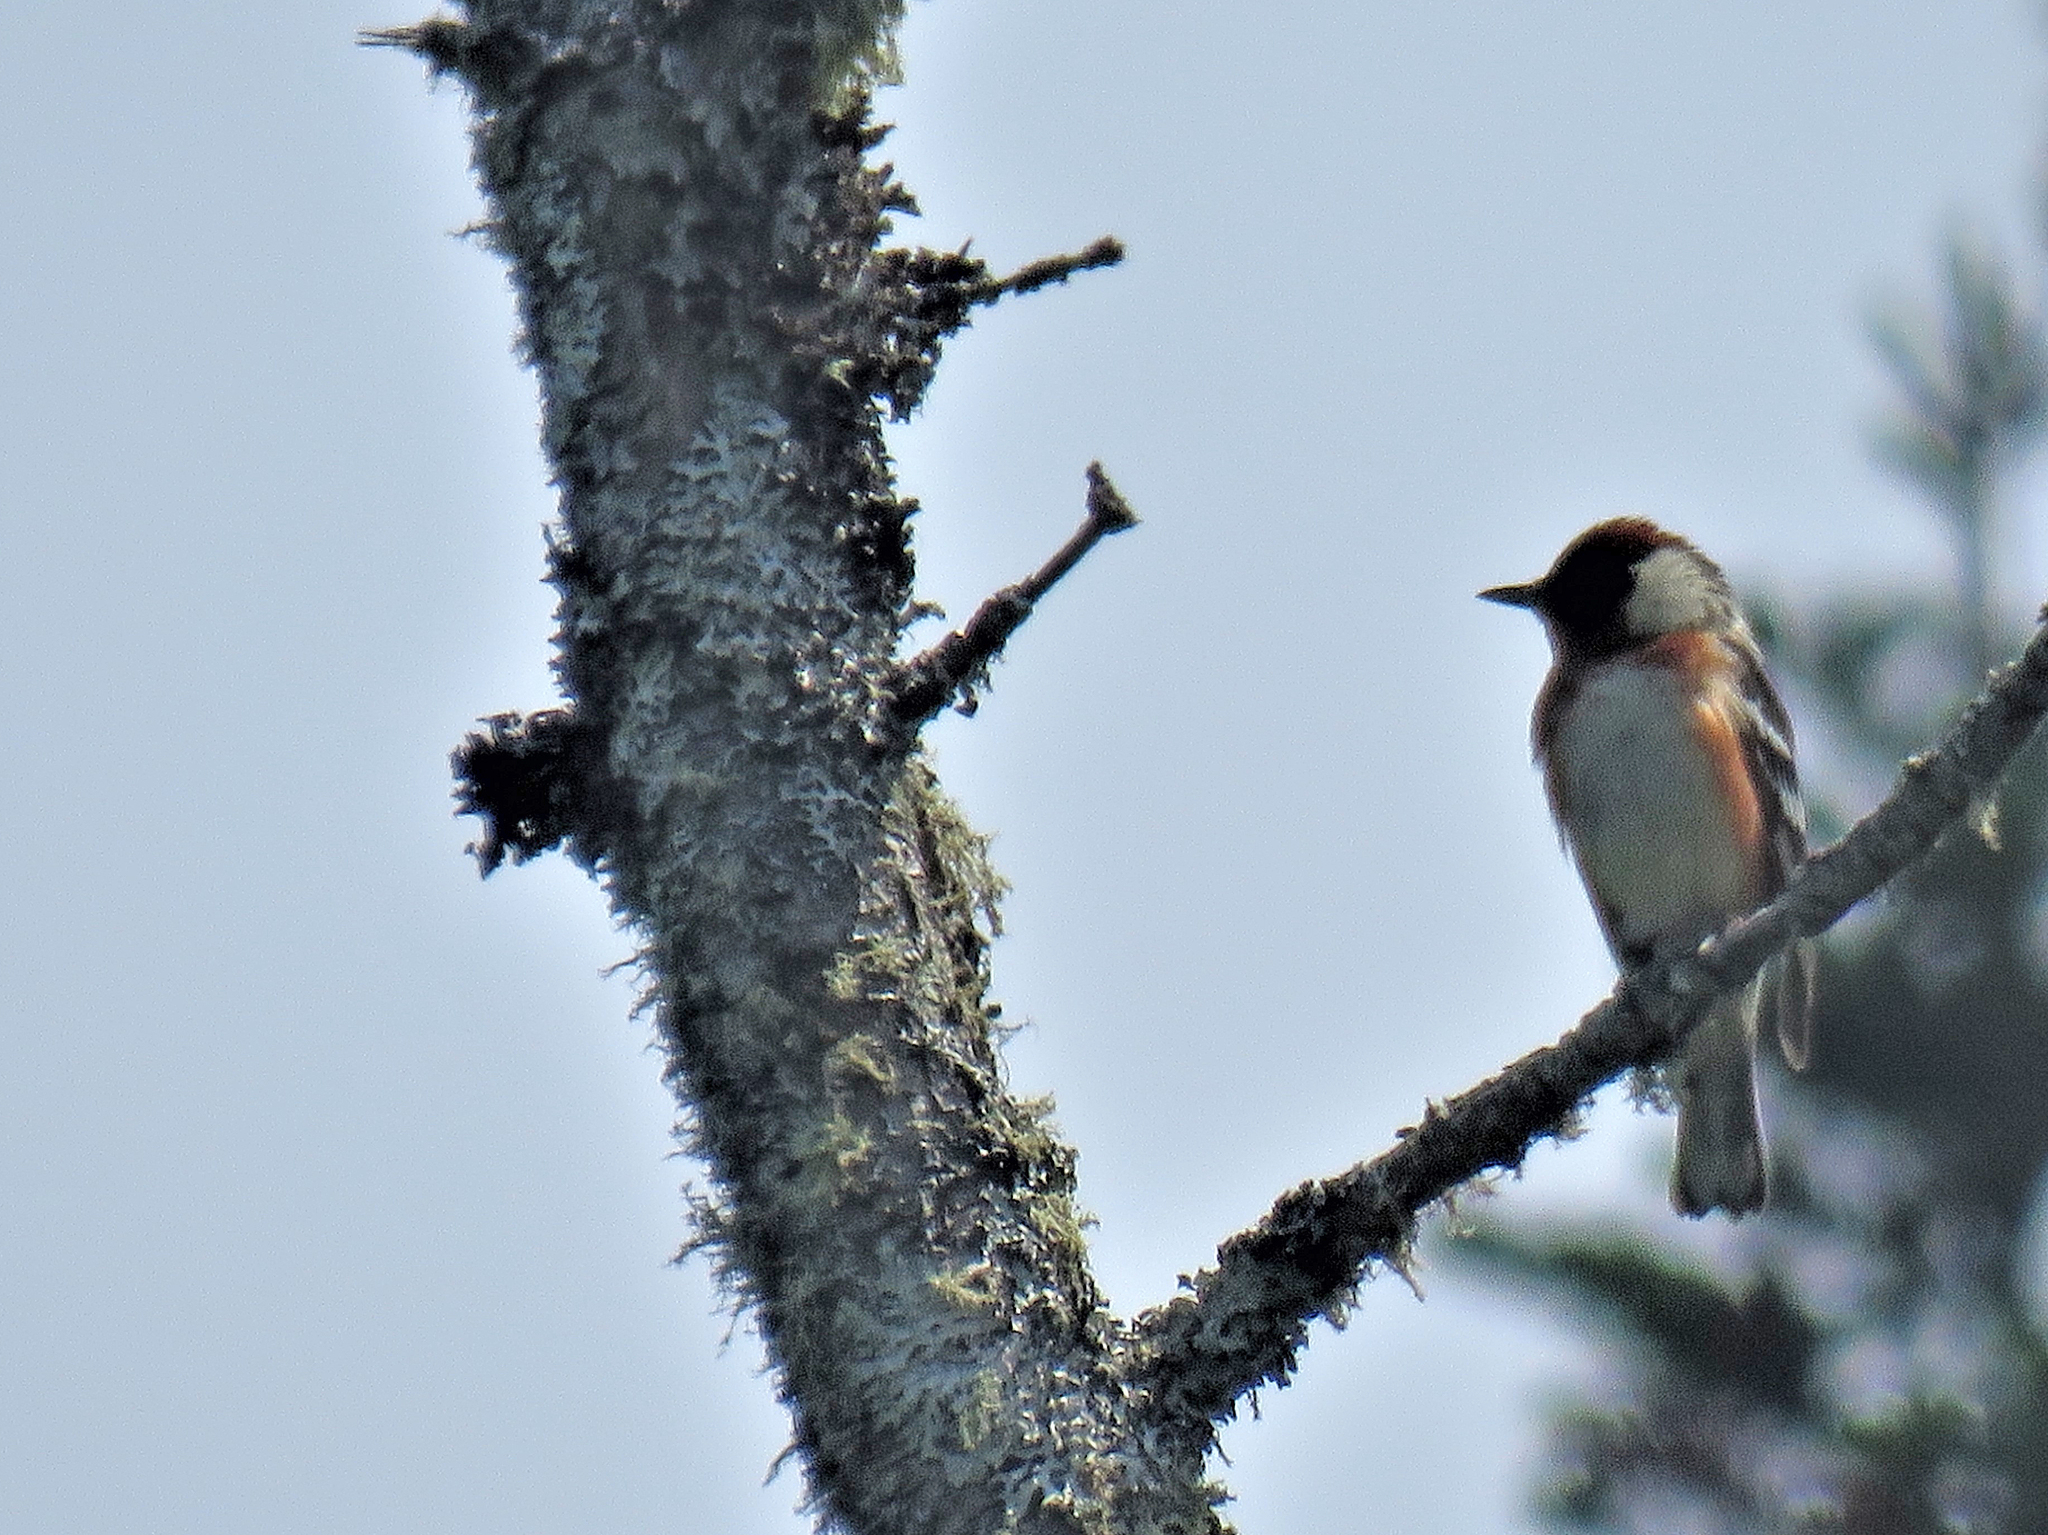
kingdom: Animalia
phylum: Chordata
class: Aves
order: Passeriformes
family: Parulidae
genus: Setophaga
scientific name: Setophaga castanea
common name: Bay-breasted warbler
